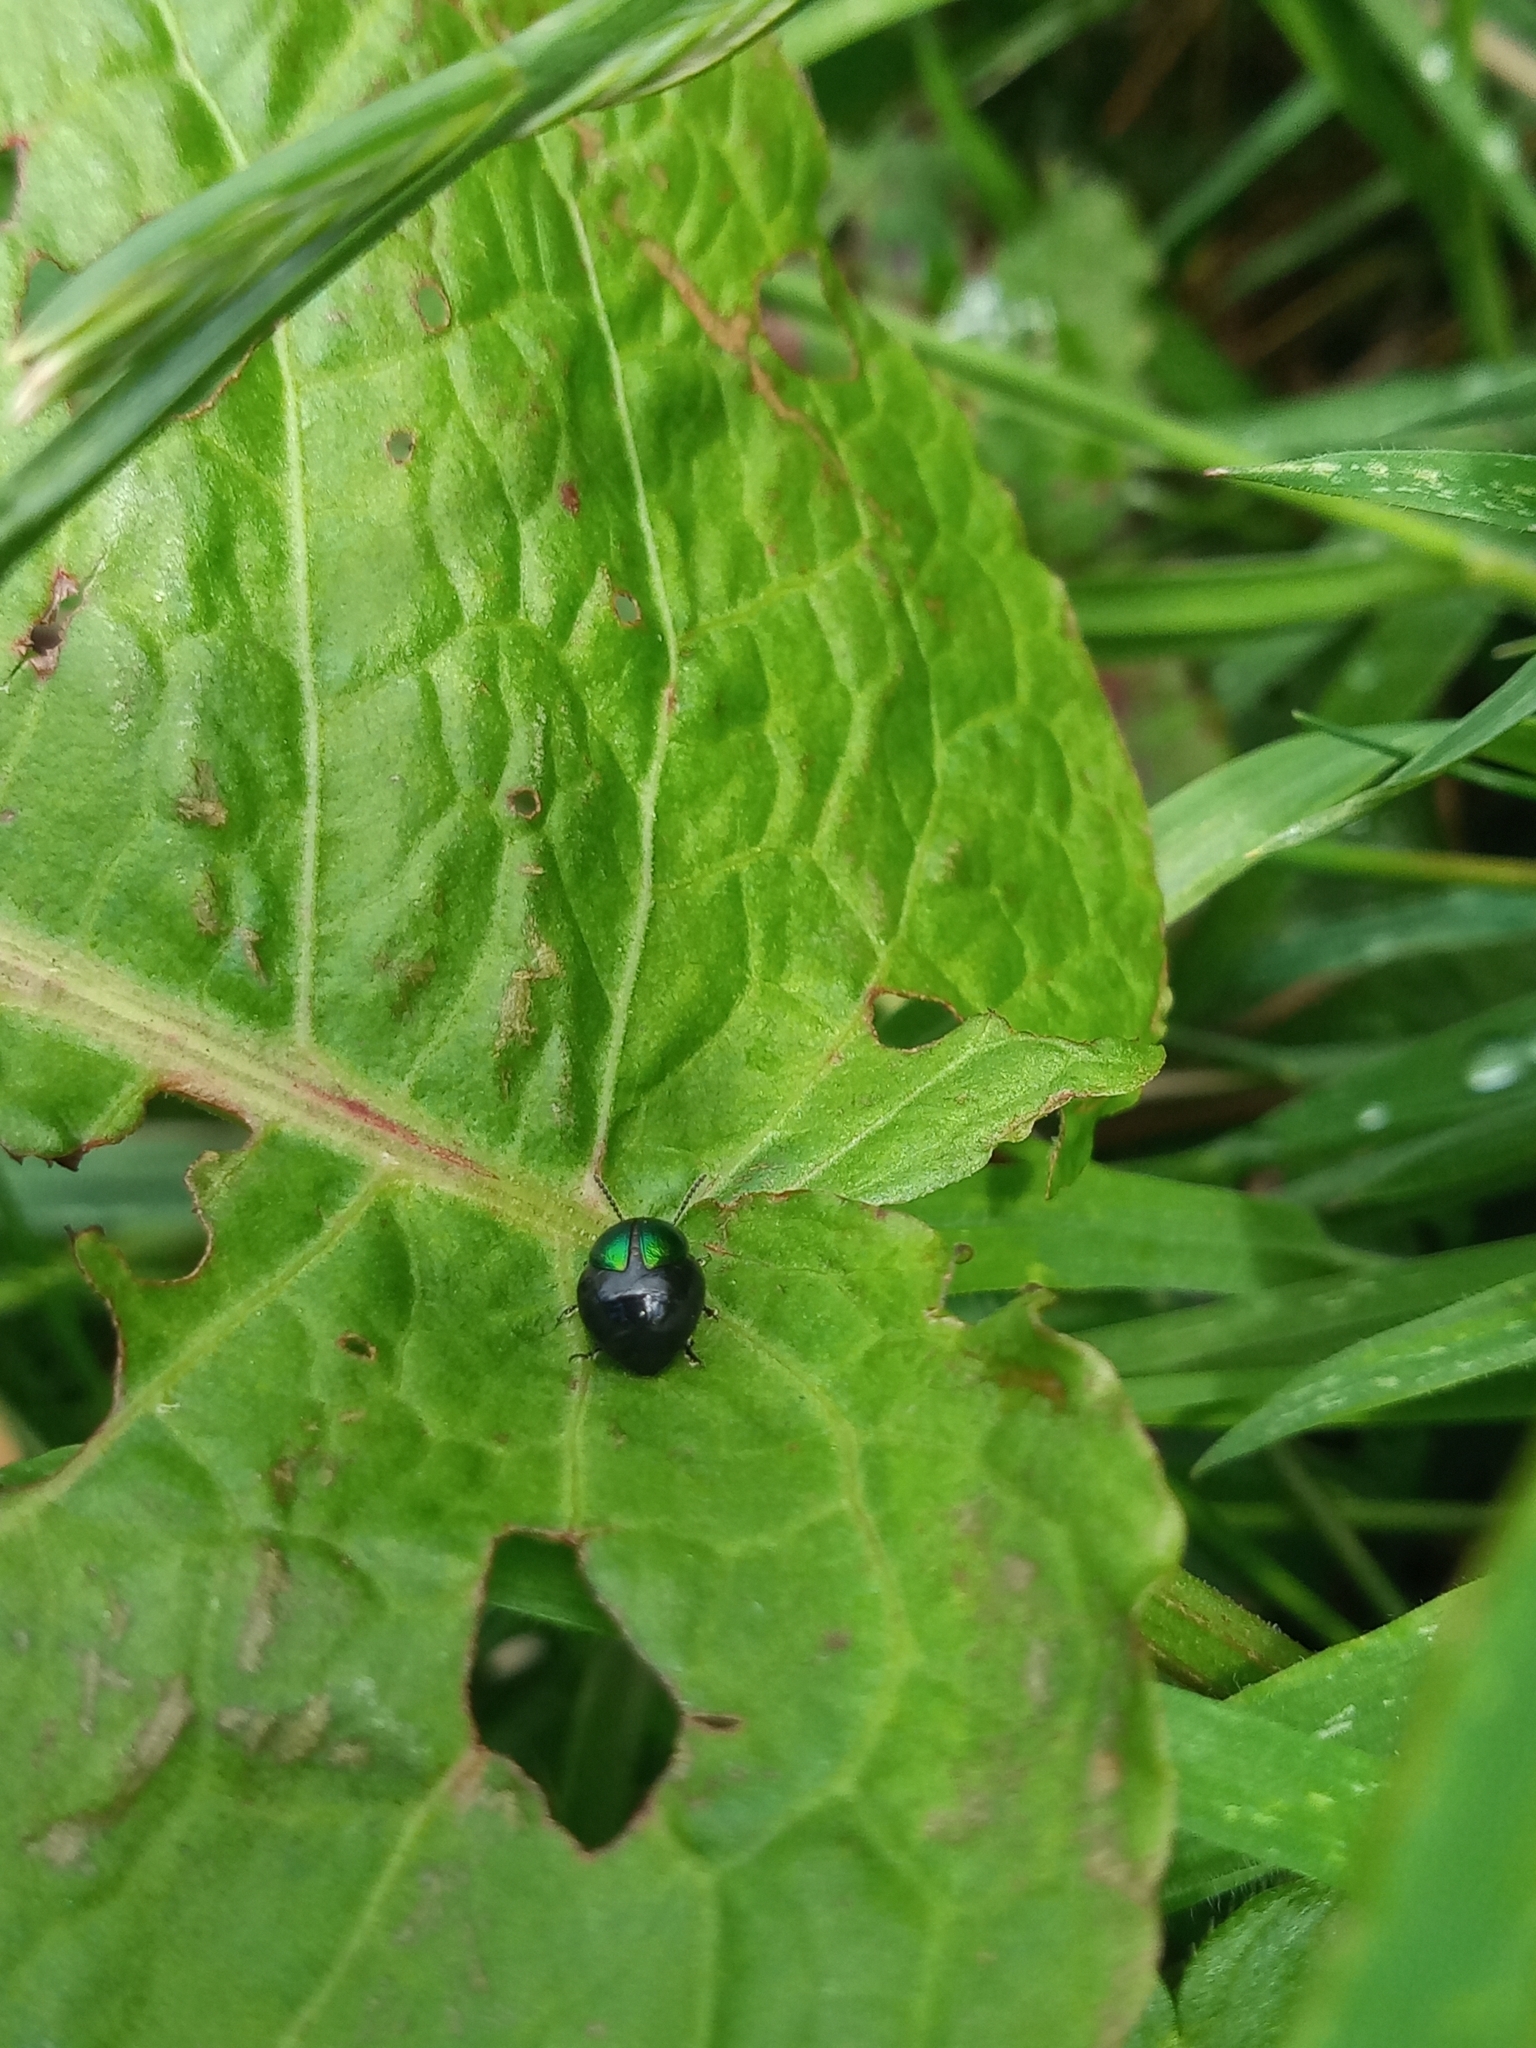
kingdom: Animalia
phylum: Arthropoda
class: Insecta
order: Coleoptera
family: Chrysomelidae
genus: Gastrophysa
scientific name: Gastrophysa viridula
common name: Green dock beetle
